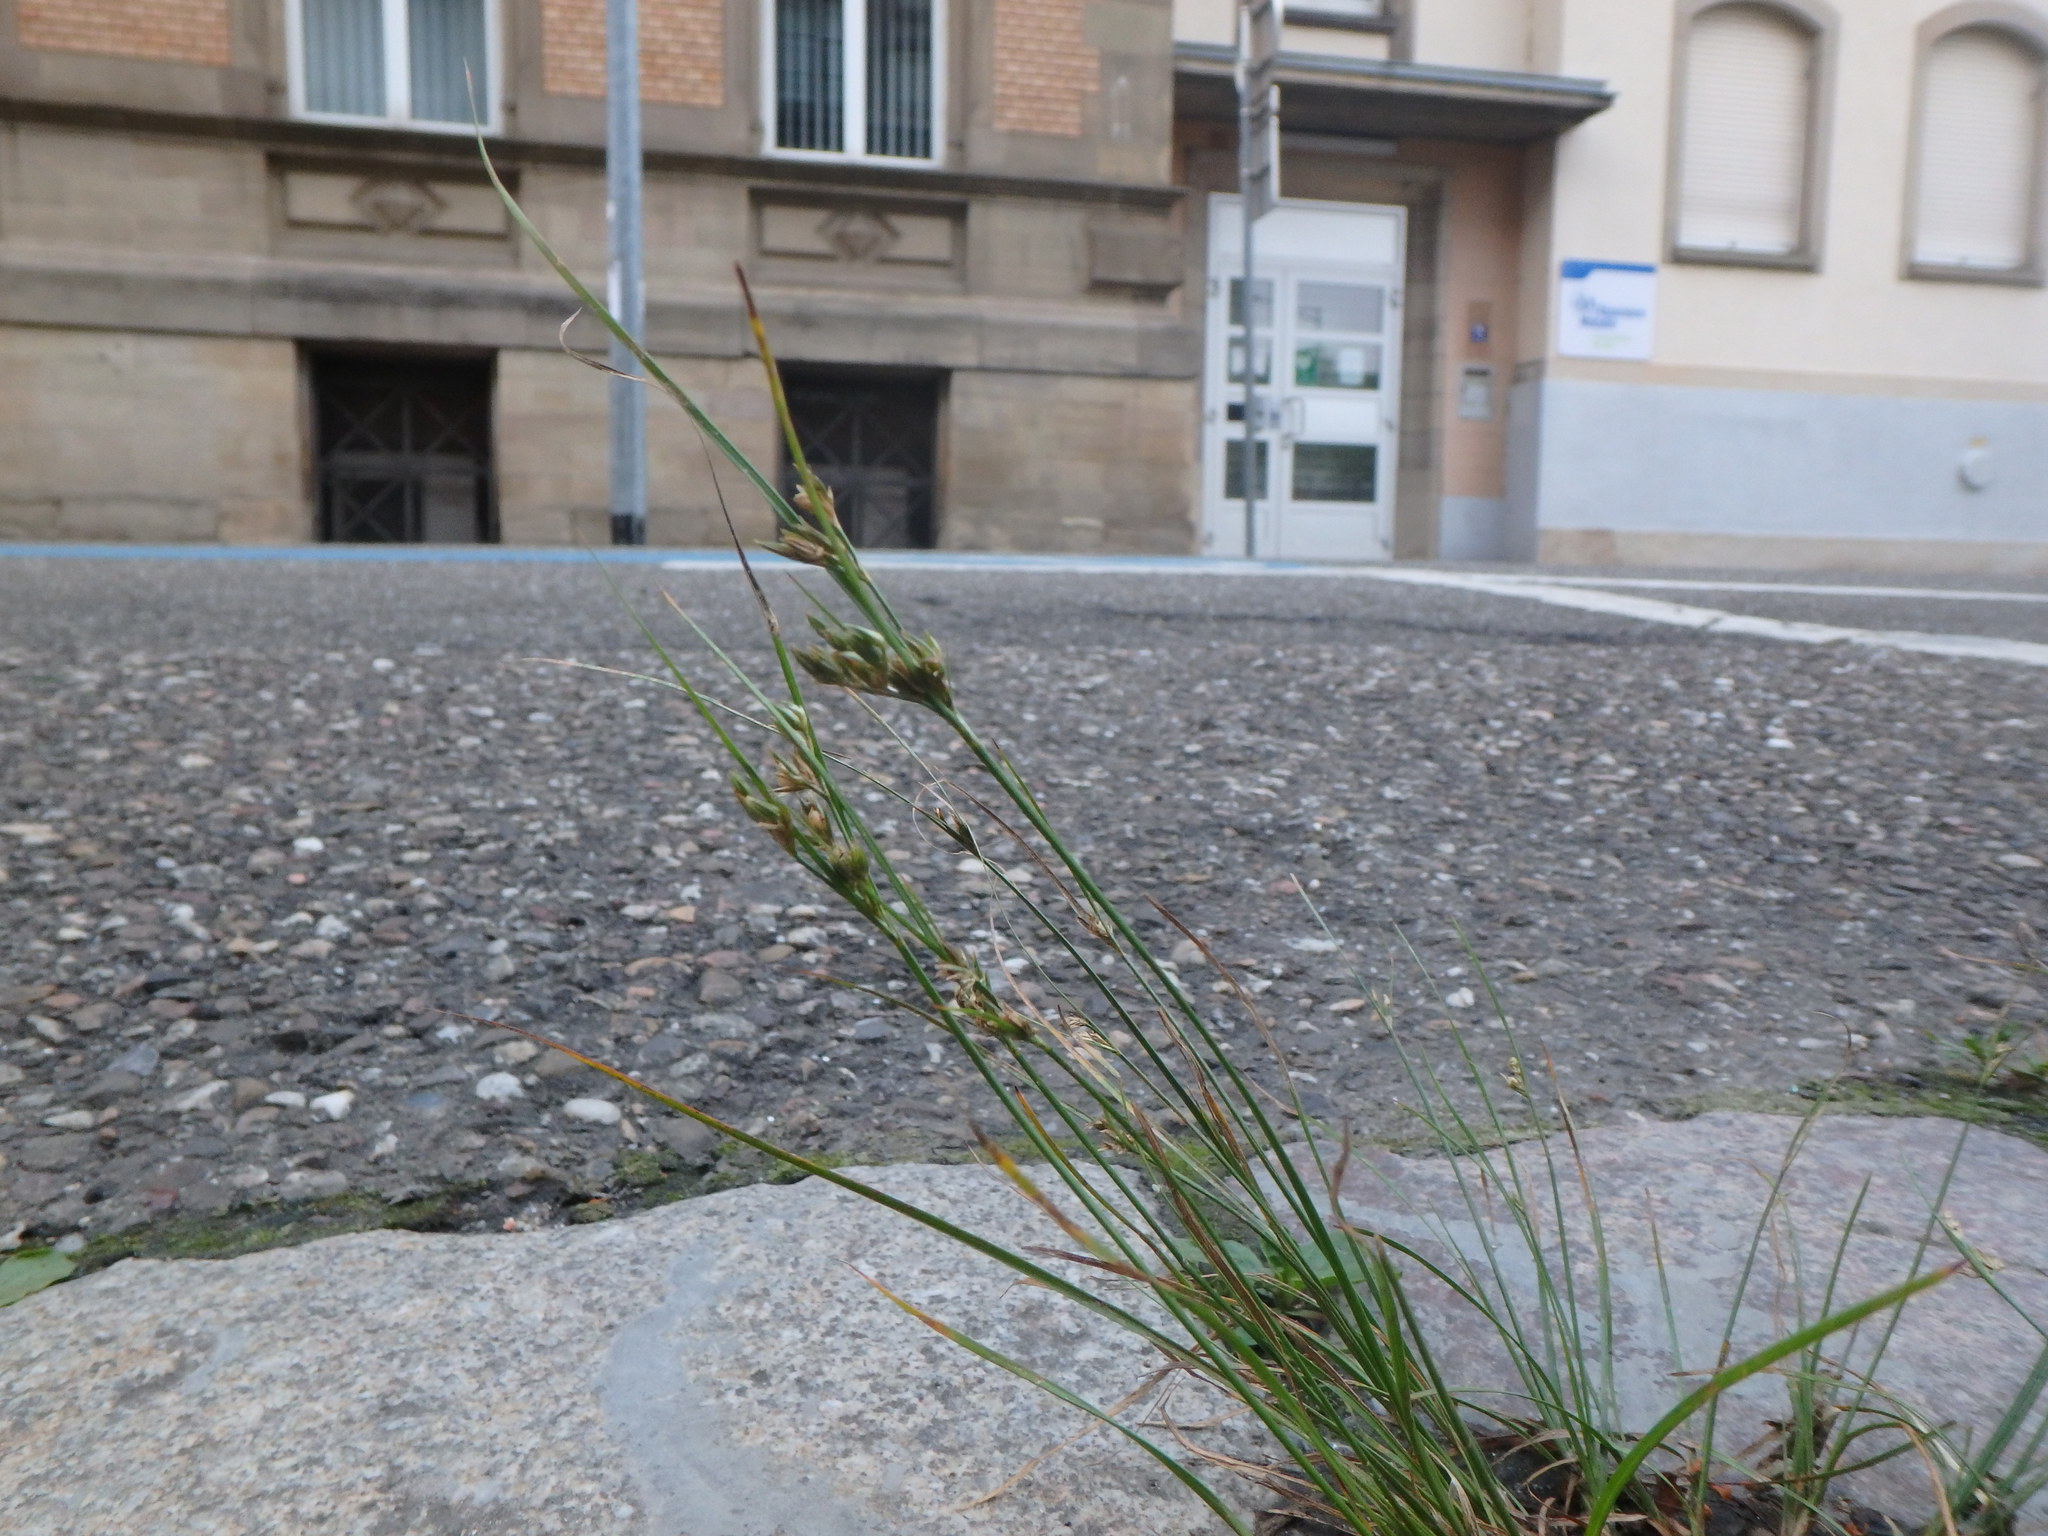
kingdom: Plantae
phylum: Tracheophyta
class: Liliopsida
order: Poales
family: Juncaceae
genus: Juncus
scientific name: Juncus tenuis
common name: Slender rush
